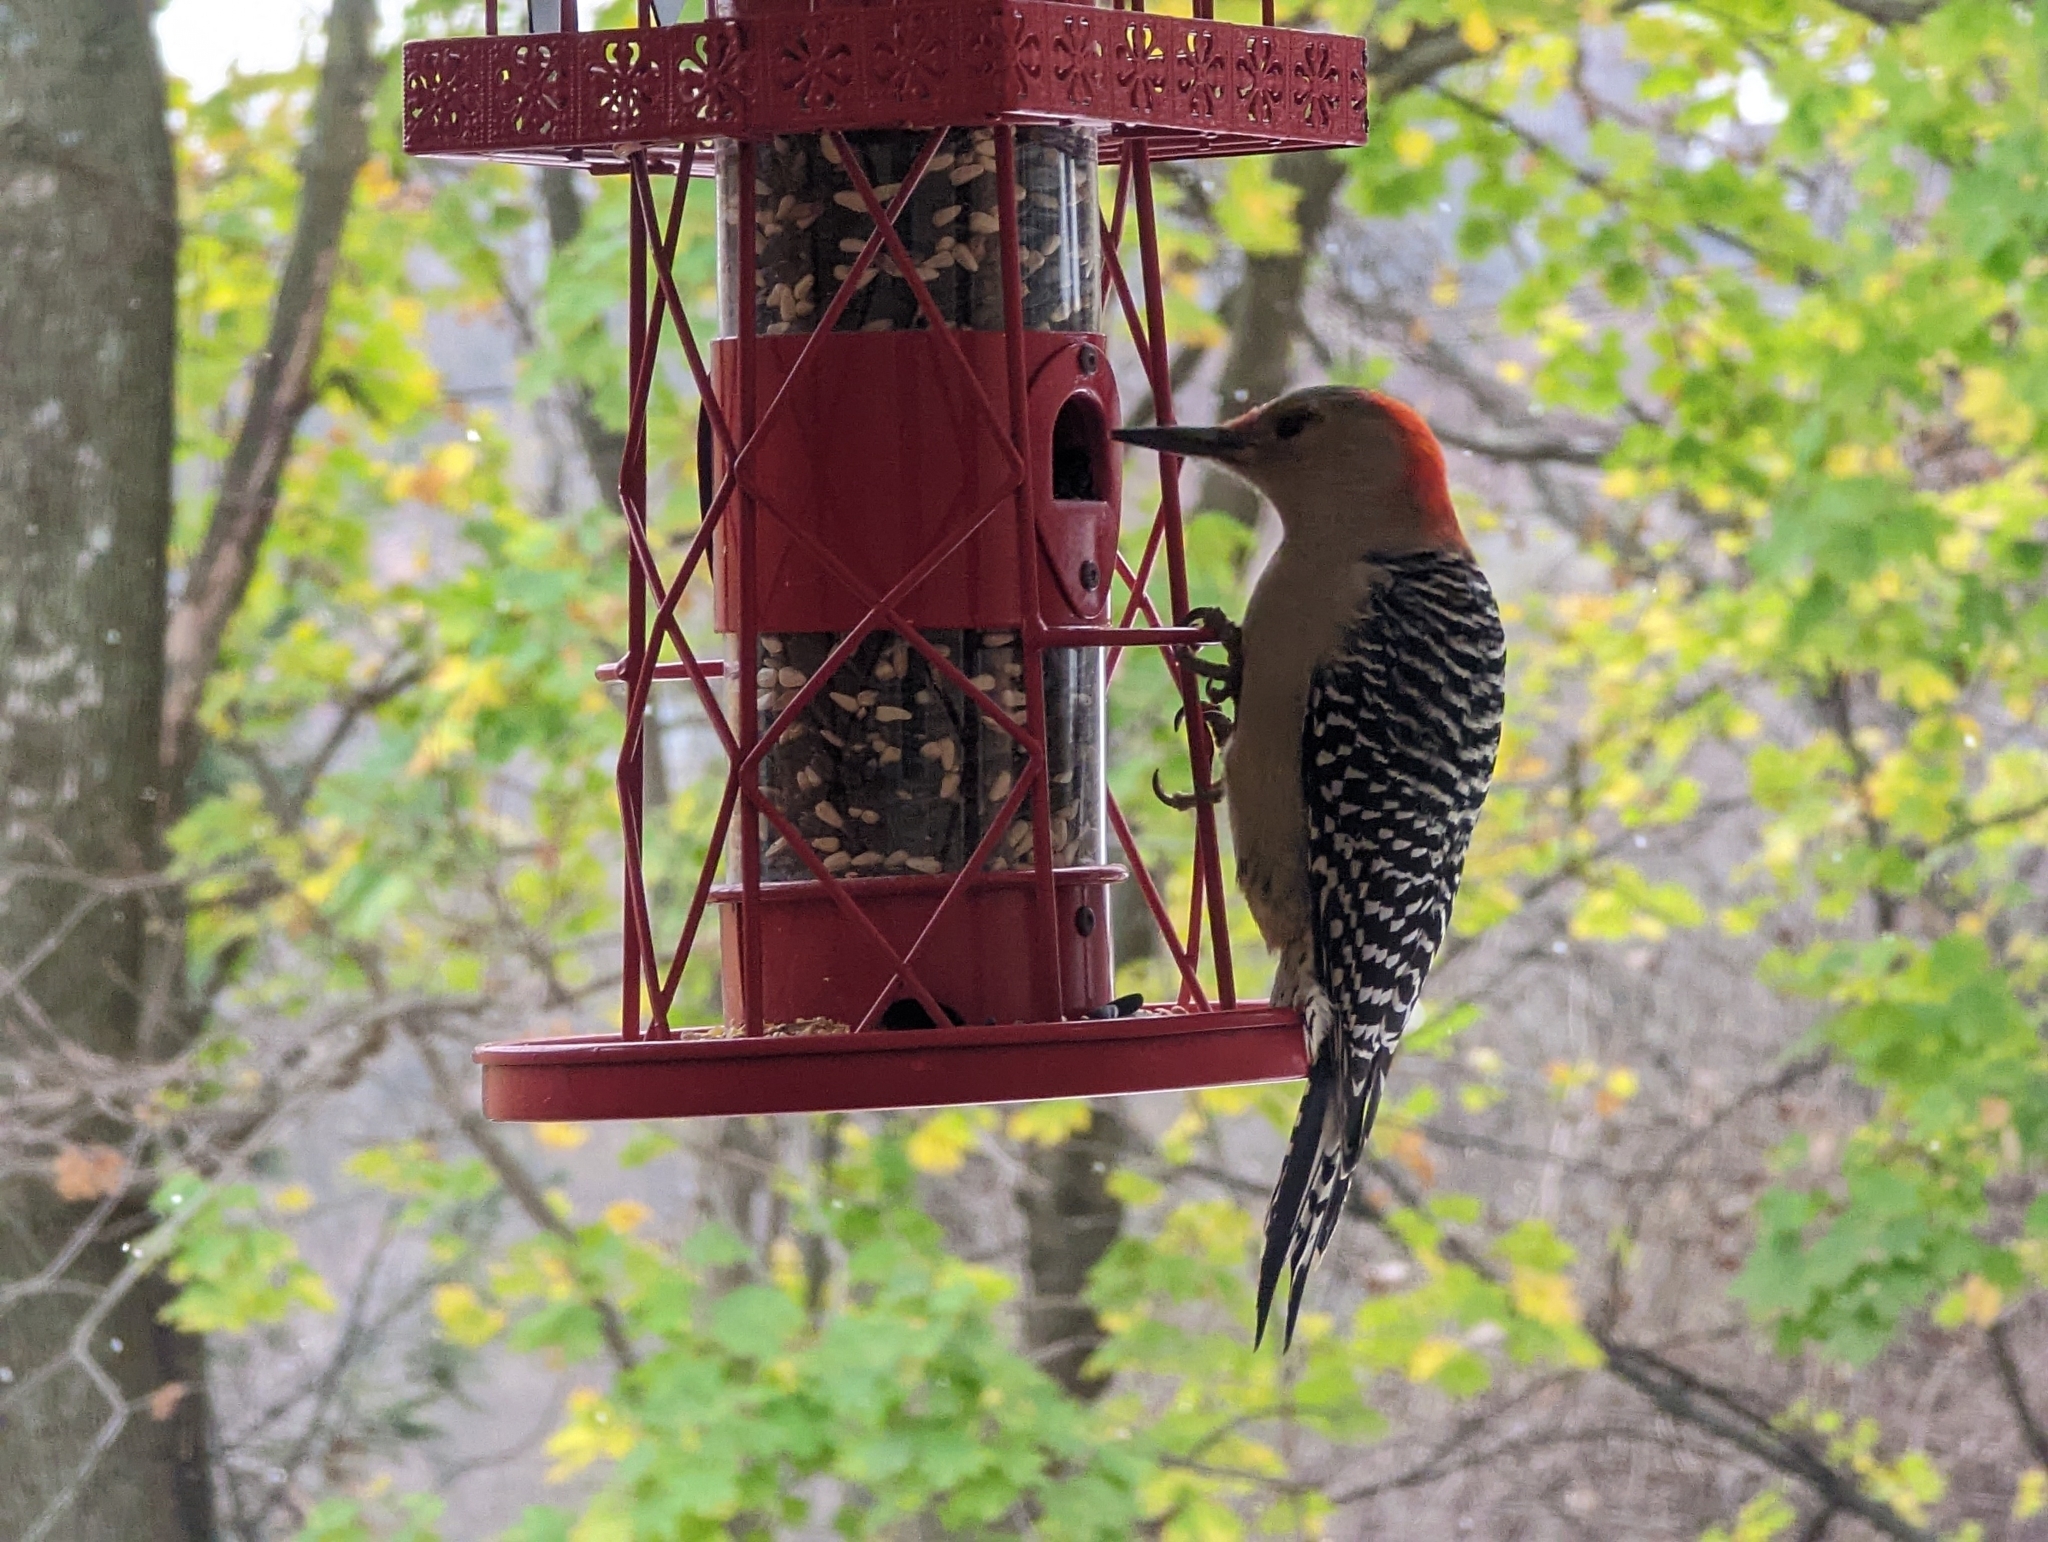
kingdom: Animalia
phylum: Chordata
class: Aves
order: Piciformes
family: Picidae
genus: Melanerpes
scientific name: Melanerpes carolinus
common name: Red-bellied woodpecker
